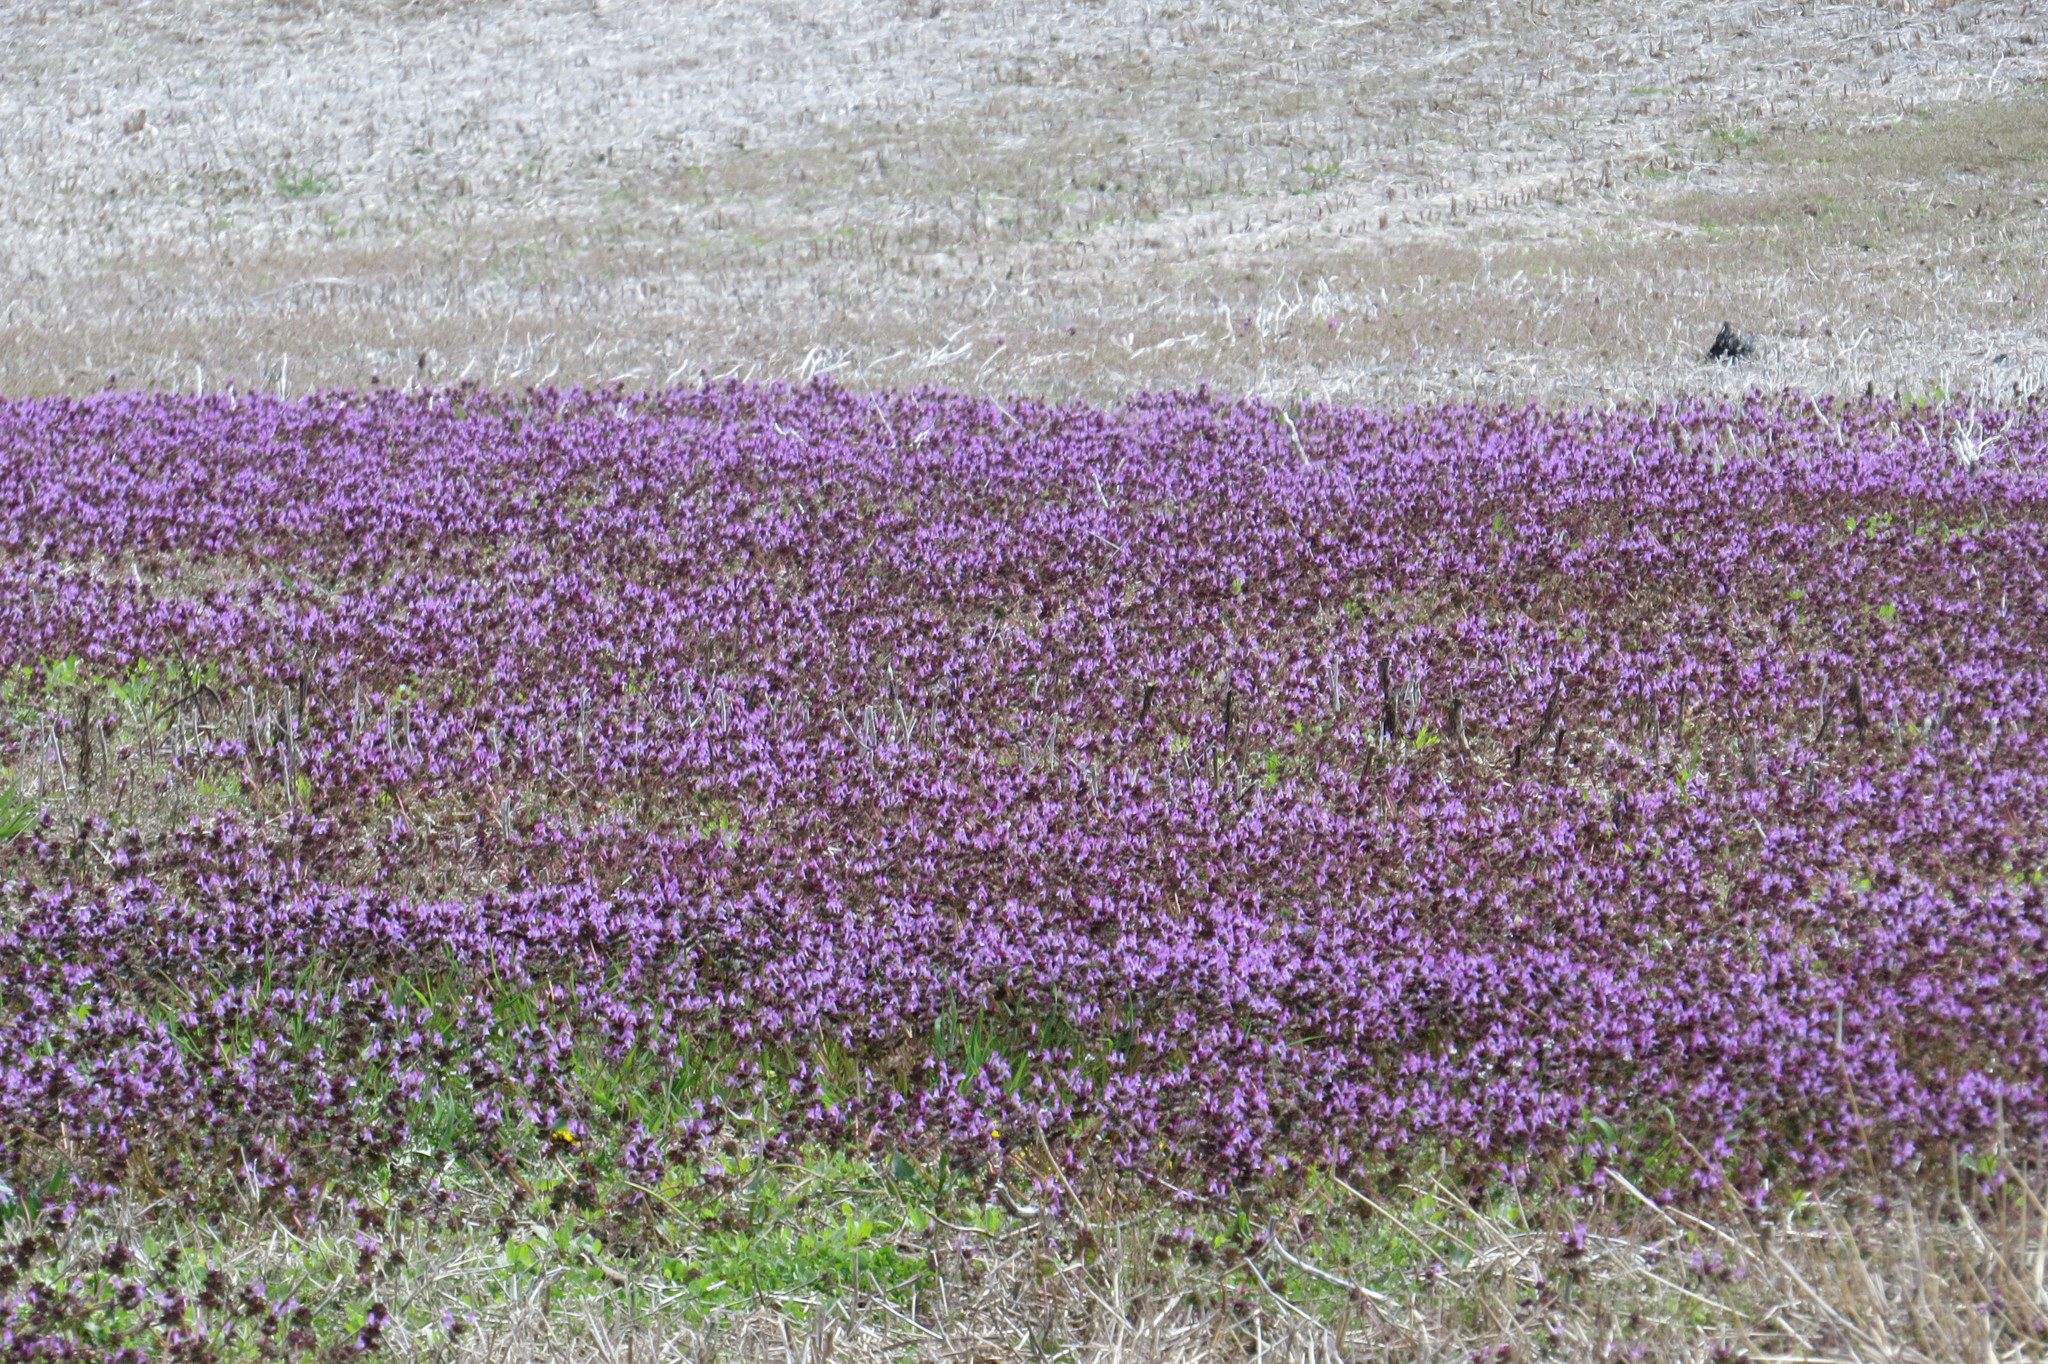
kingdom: Plantae
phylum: Tracheophyta
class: Magnoliopsida
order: Lamiales
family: Lamiaceae
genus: Lamium
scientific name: Lamium amplexicaule
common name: Henbit dead-nettle
